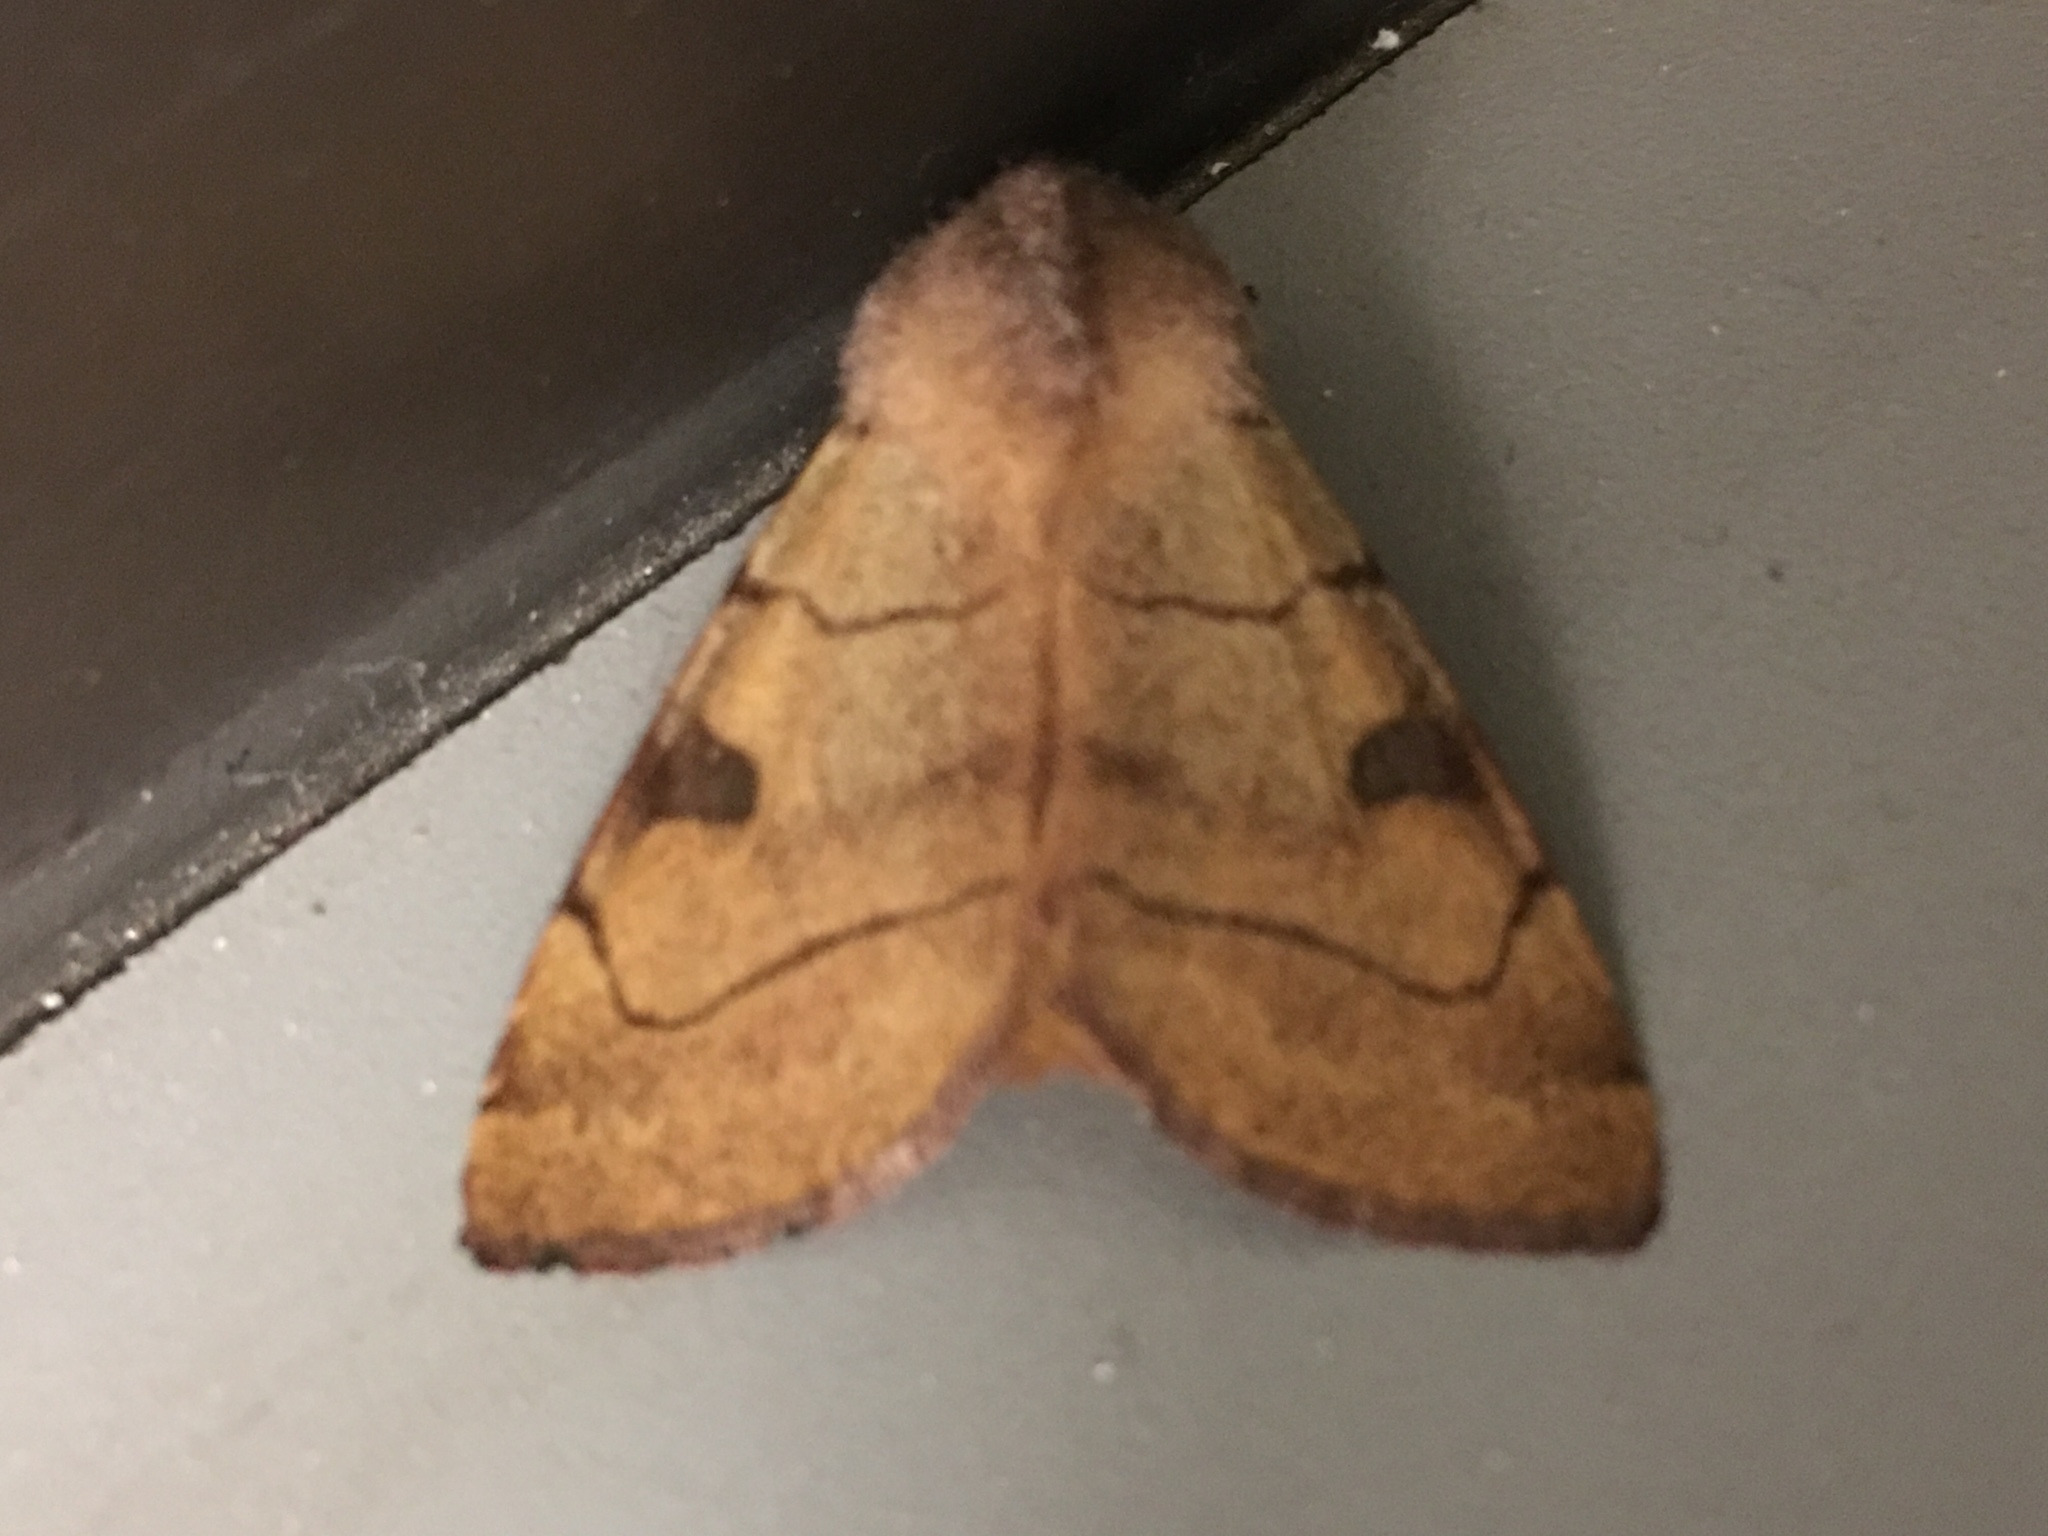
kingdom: Animalia
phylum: Arthropoda
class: Insecta
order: Lepidoptera
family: Noctuidae
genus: Choephora
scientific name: Choephora fungorum
